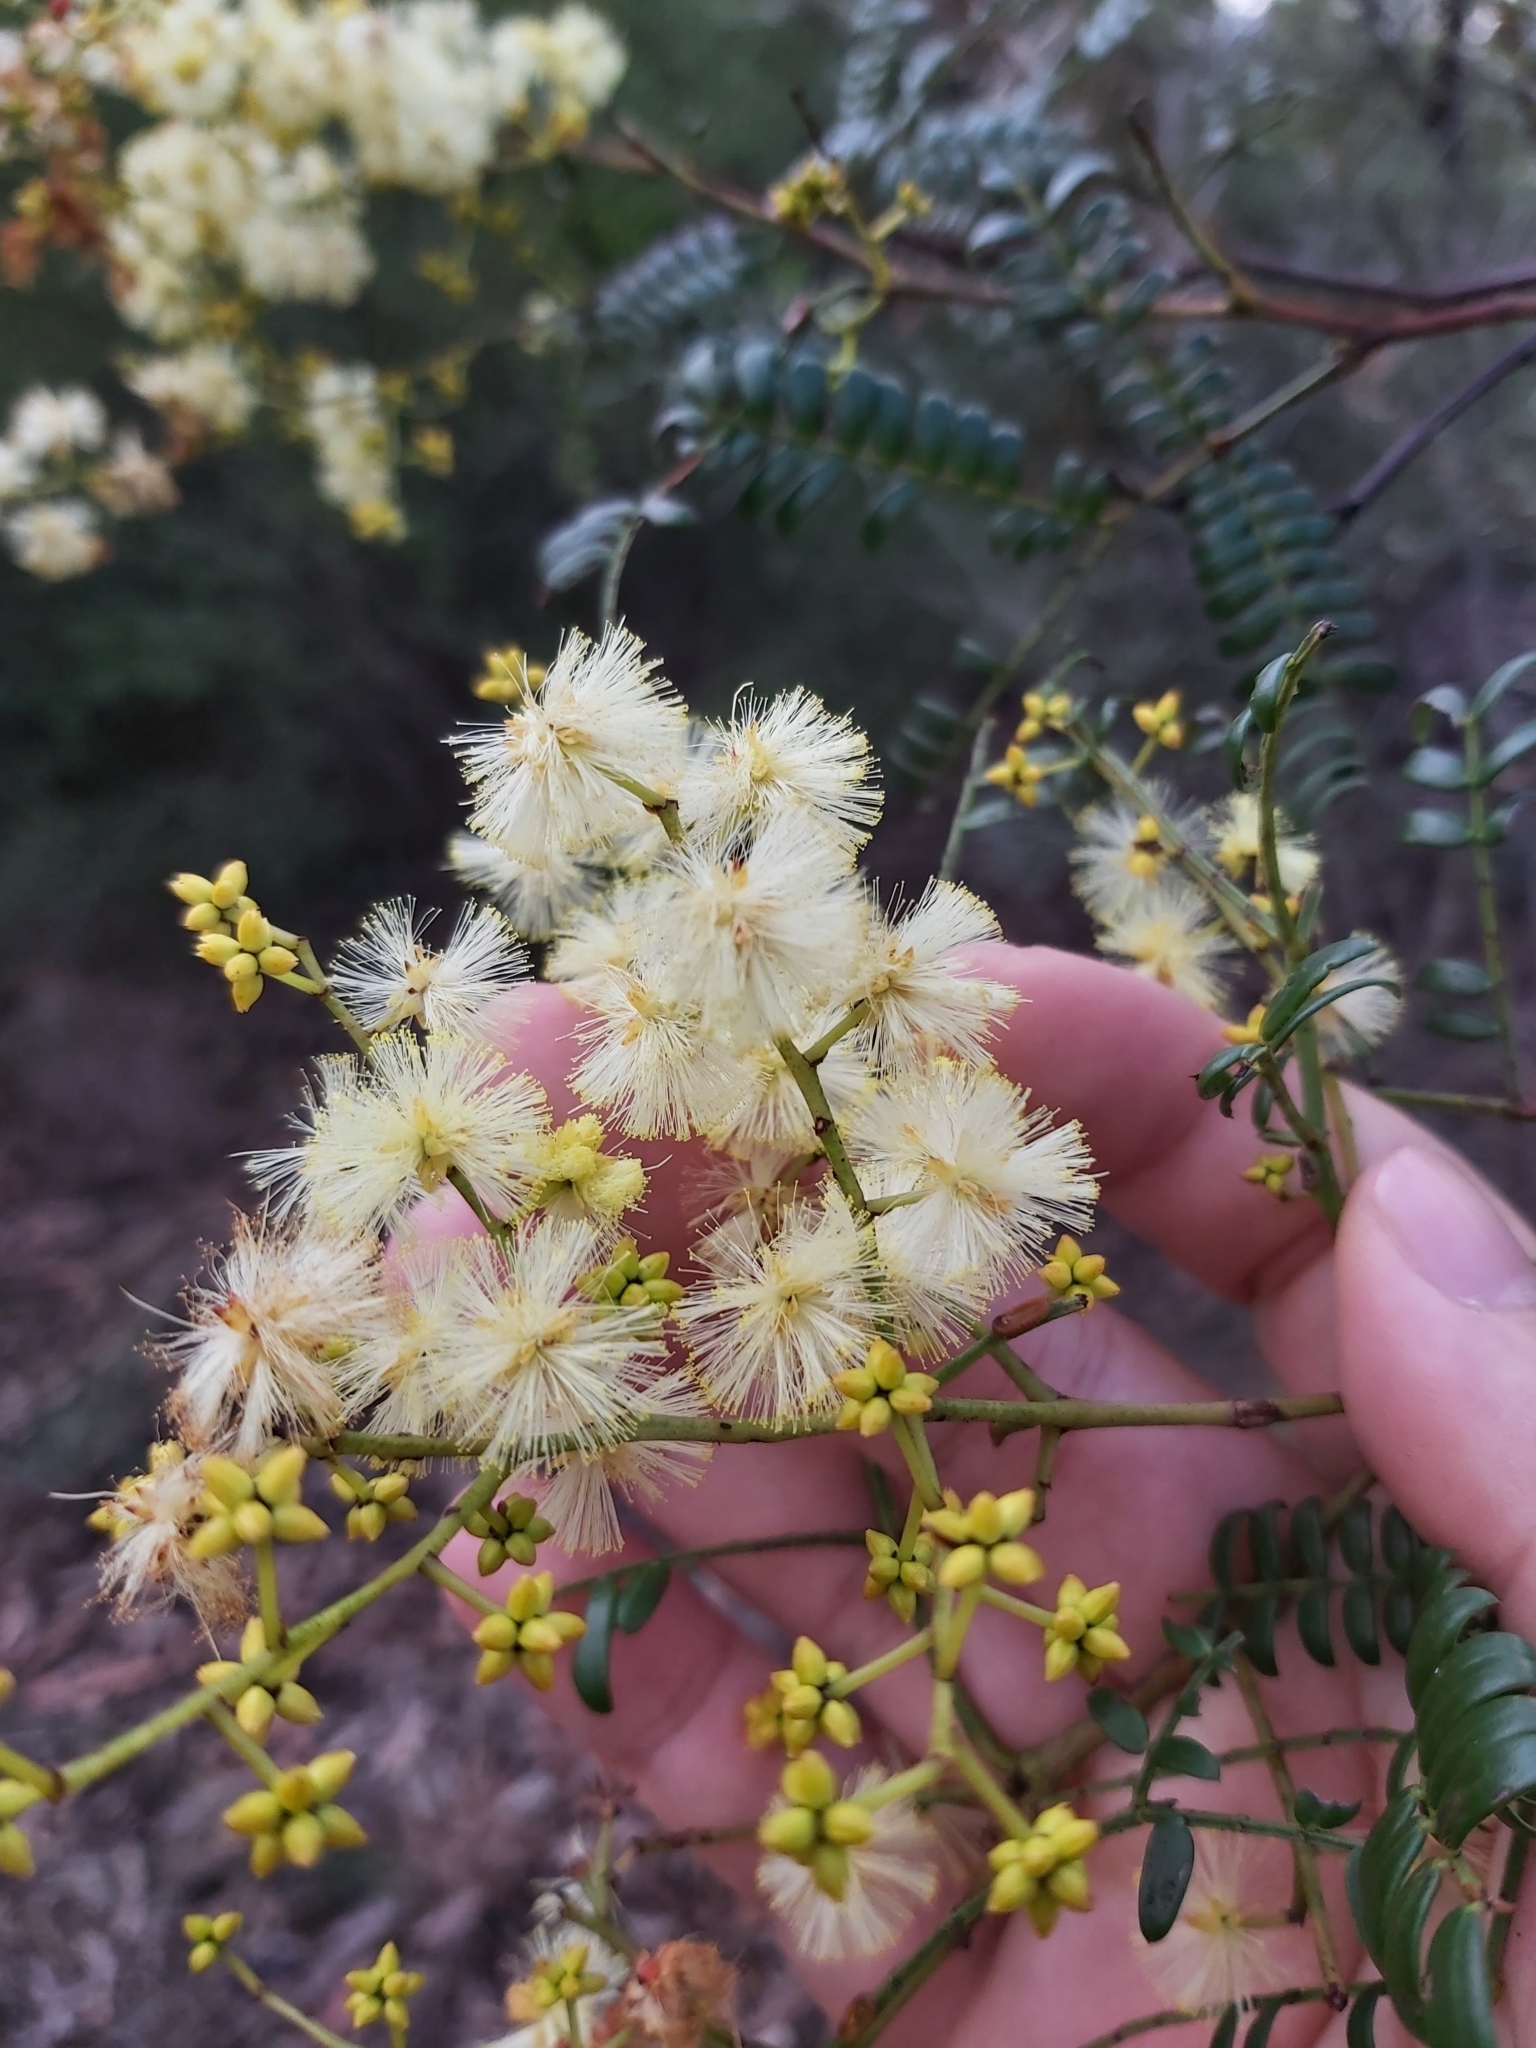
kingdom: Plantae
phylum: Tracheophyta
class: Magnoliopsida
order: Fabales
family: Fabaceae
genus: Acacia
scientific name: Acacia terminalis
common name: Cedar wattle
